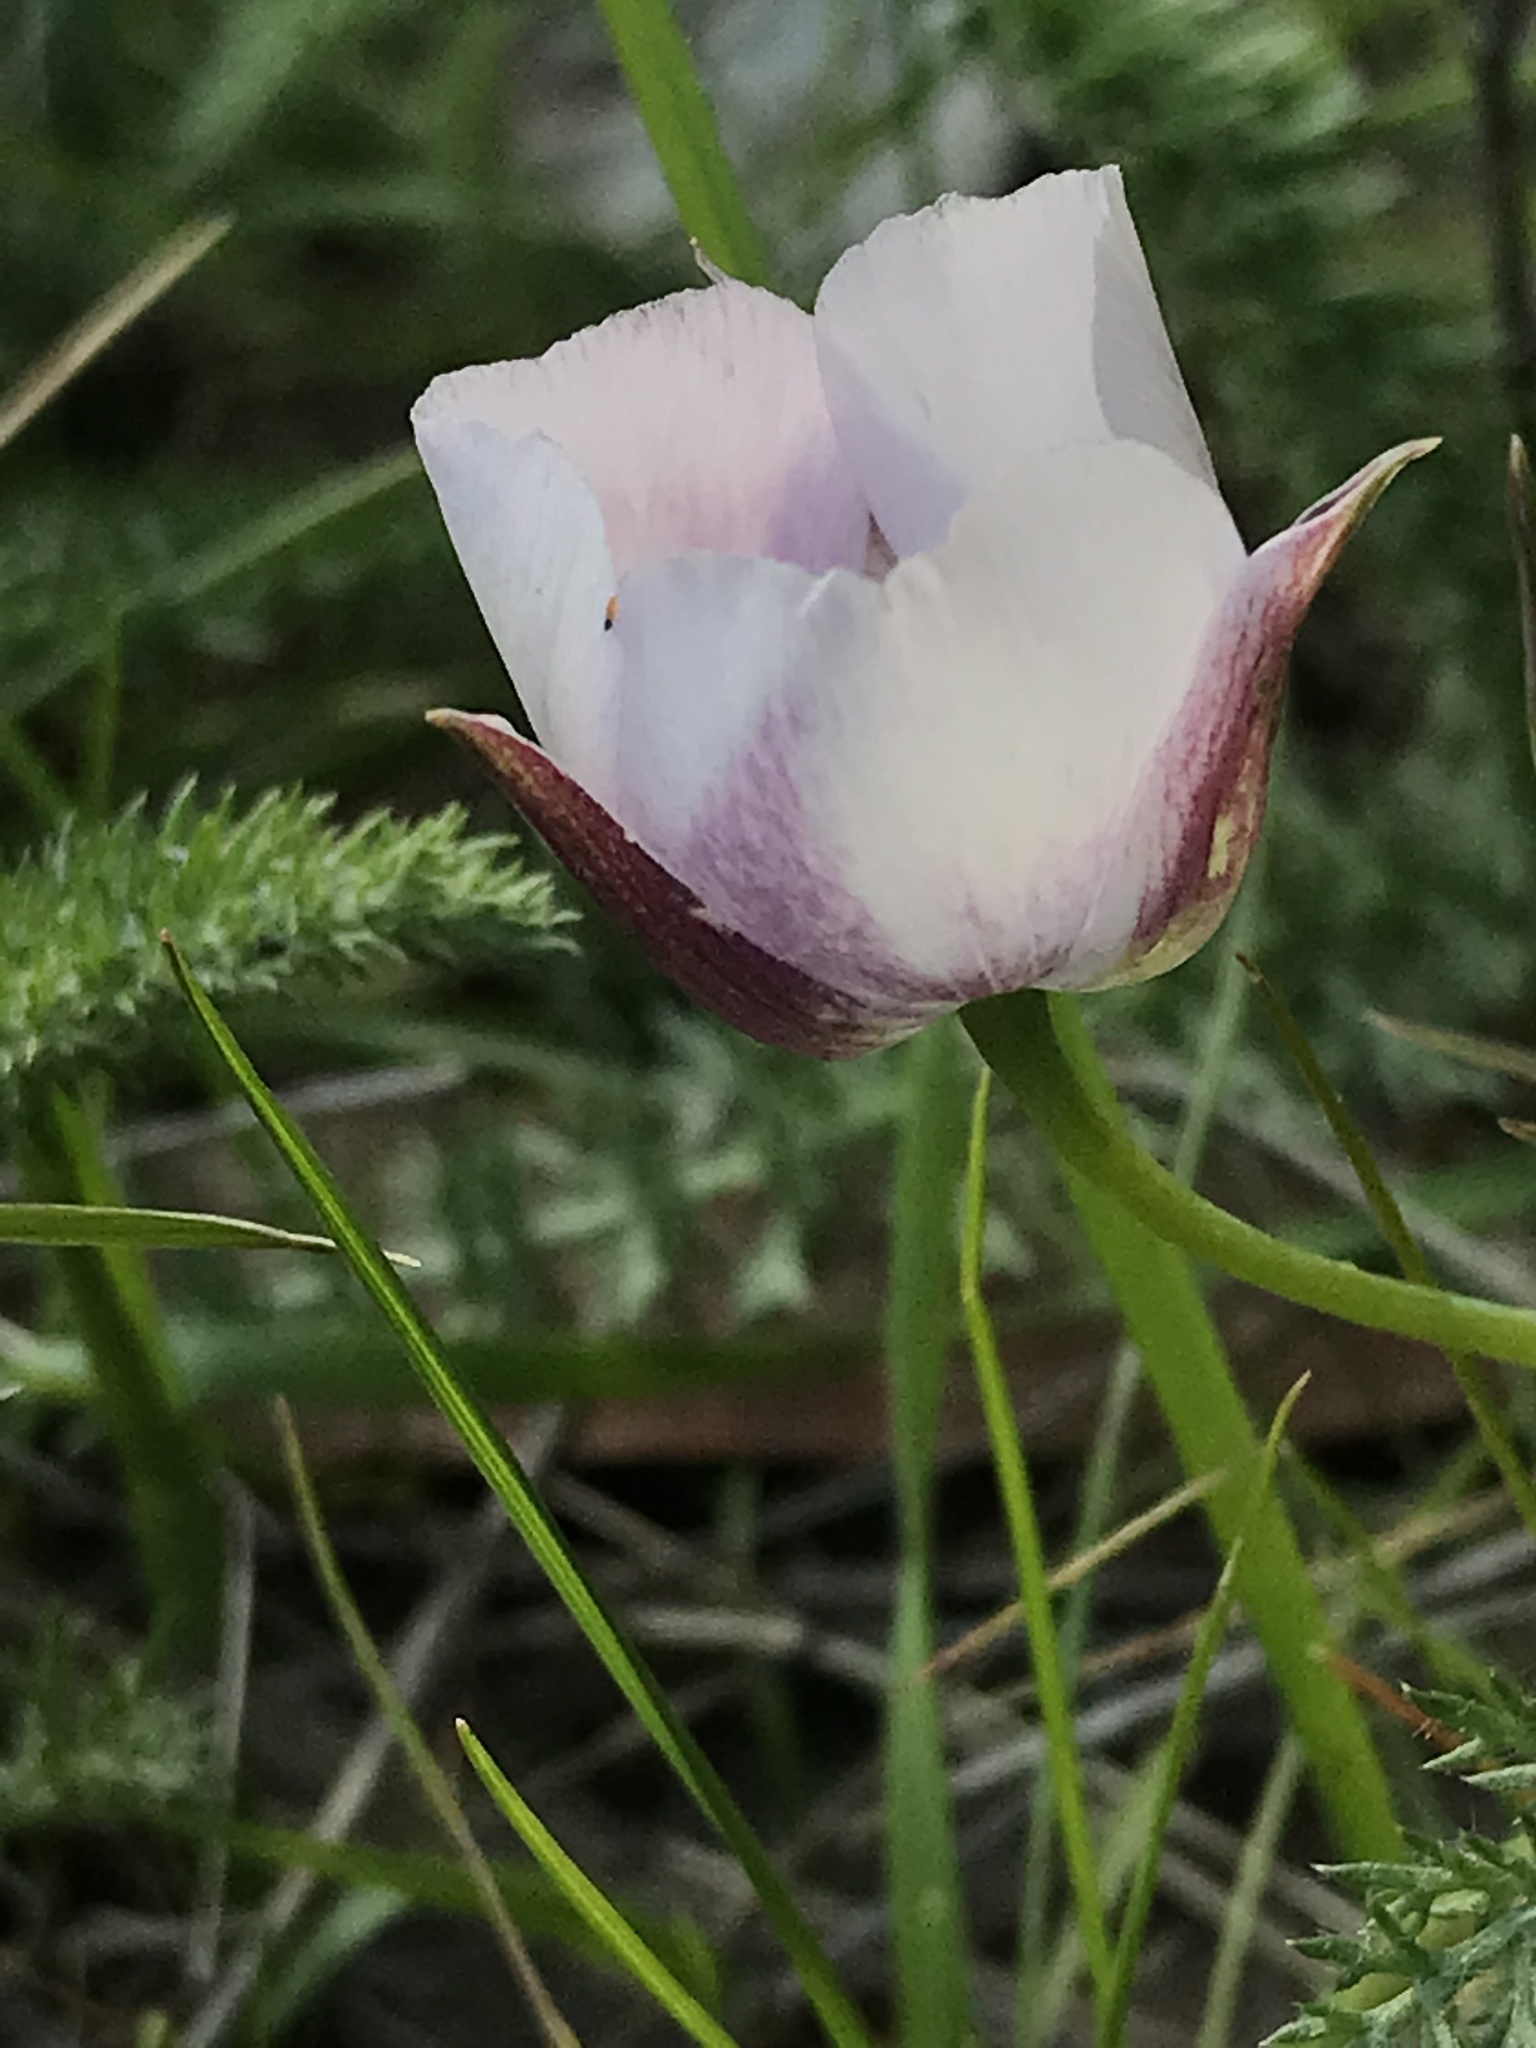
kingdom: Plantae
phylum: Tracheophyta
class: Liliopsida
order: Liliales
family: Liliaceae
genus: Calochortus
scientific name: Calochortus umbellatus
